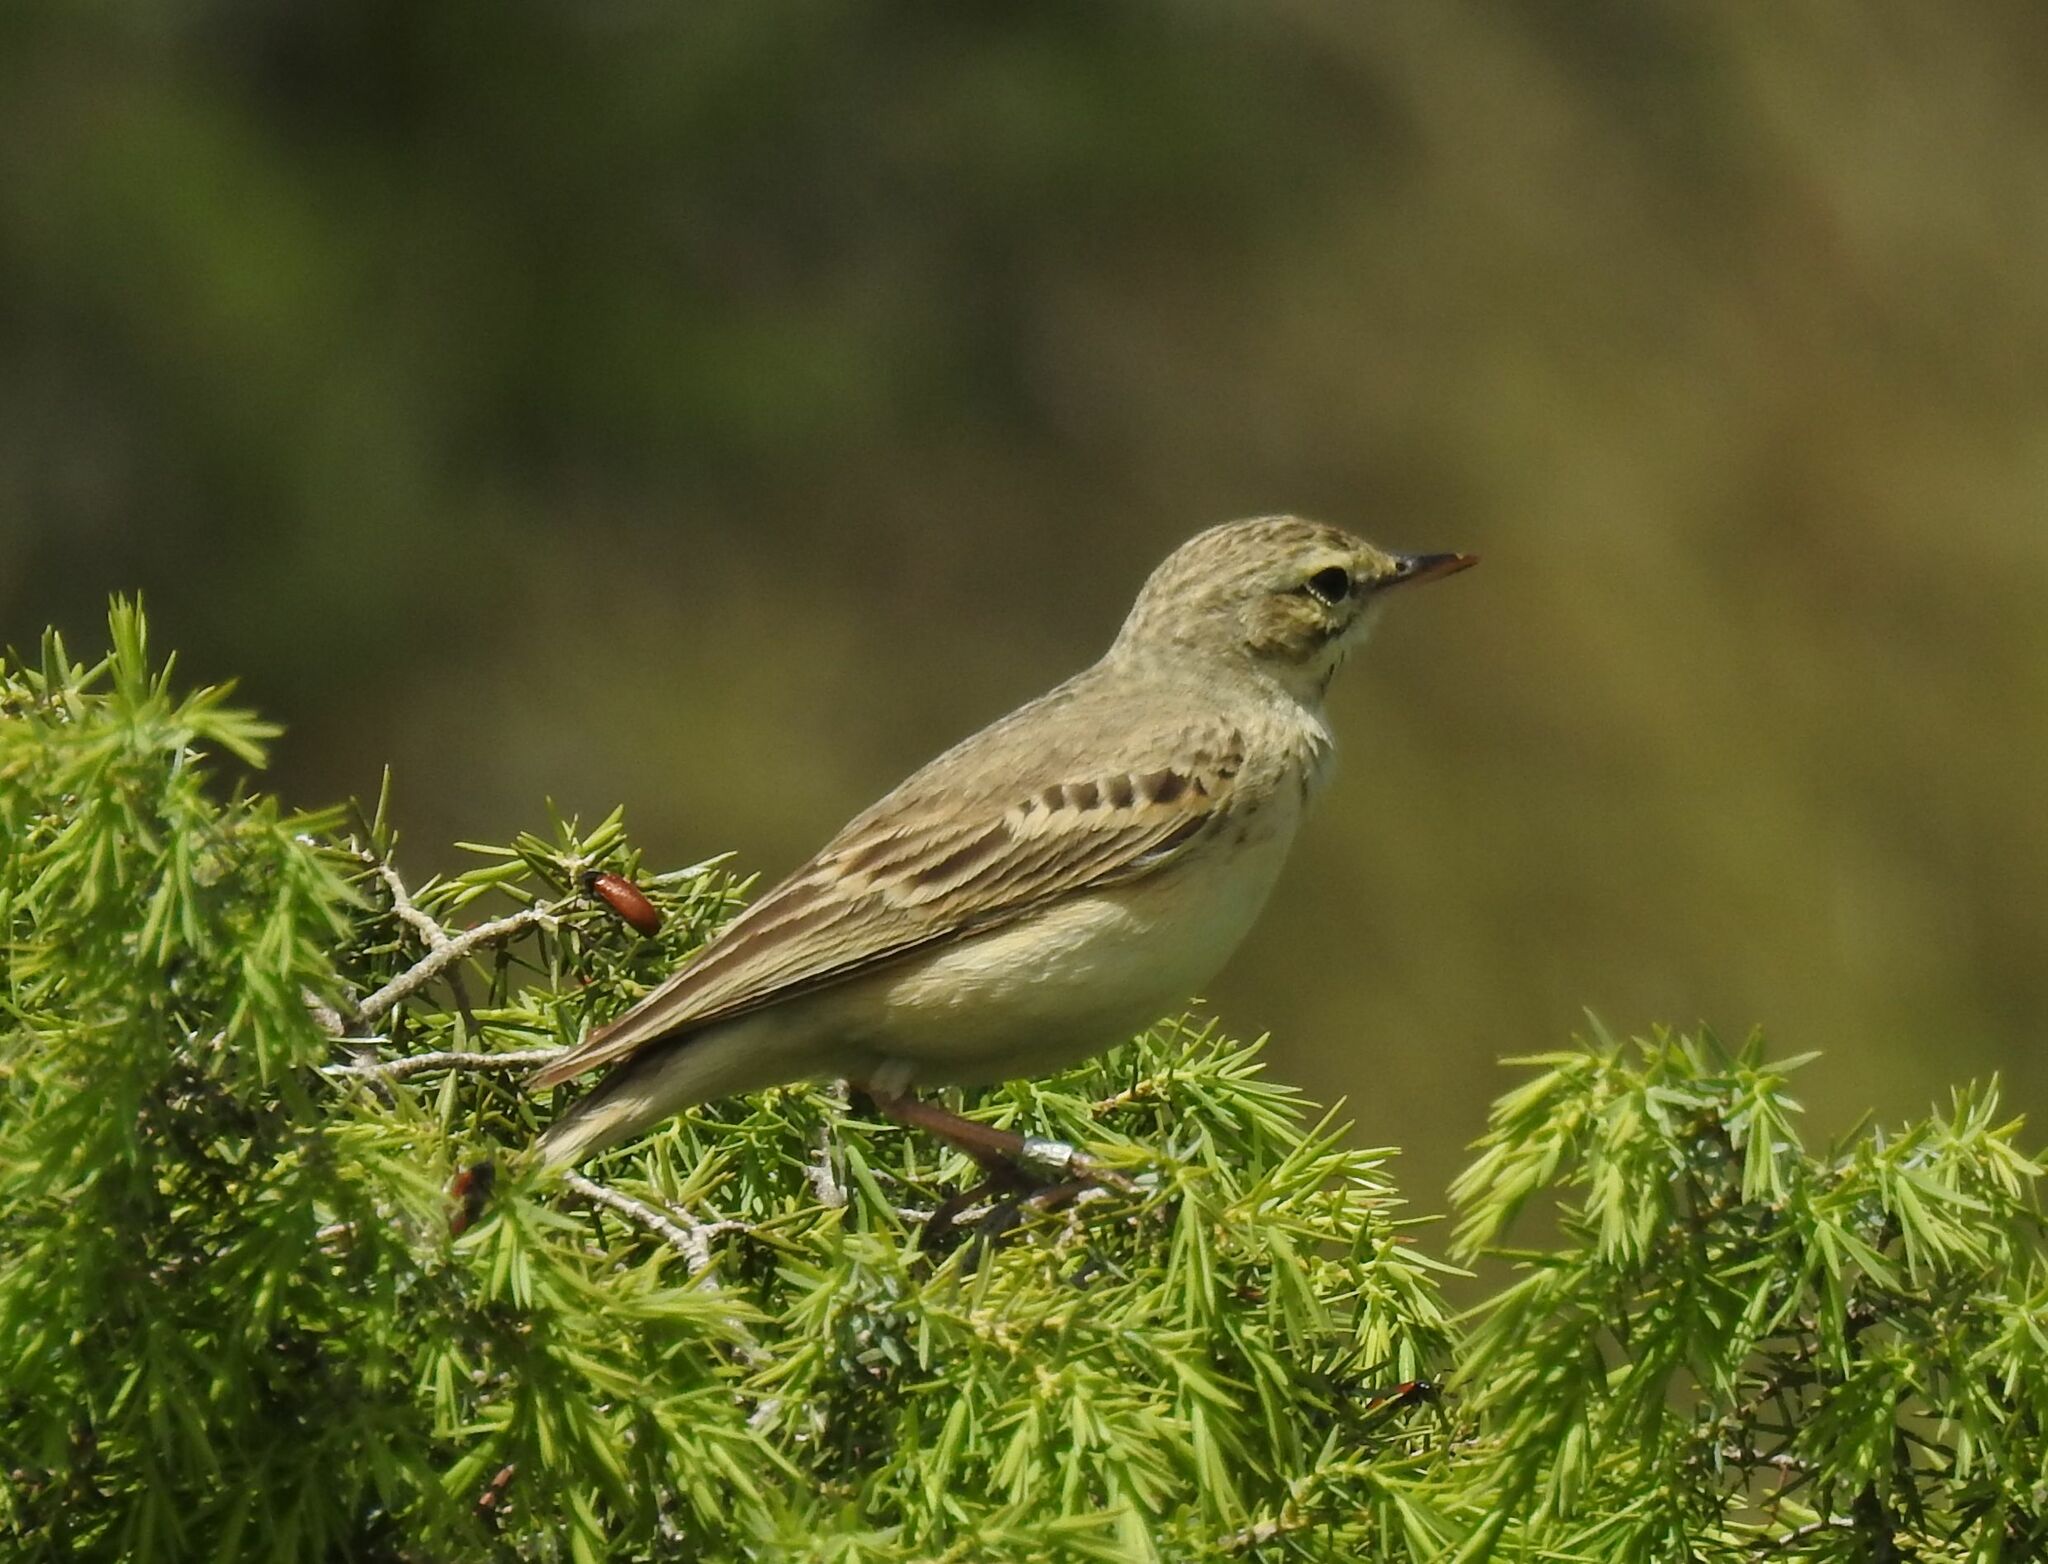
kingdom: Animalia
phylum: Chordata
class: Aves
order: Passeriformes
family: Motacillidae
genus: Anthus
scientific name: Anthus campestris
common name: Tawny pipit
